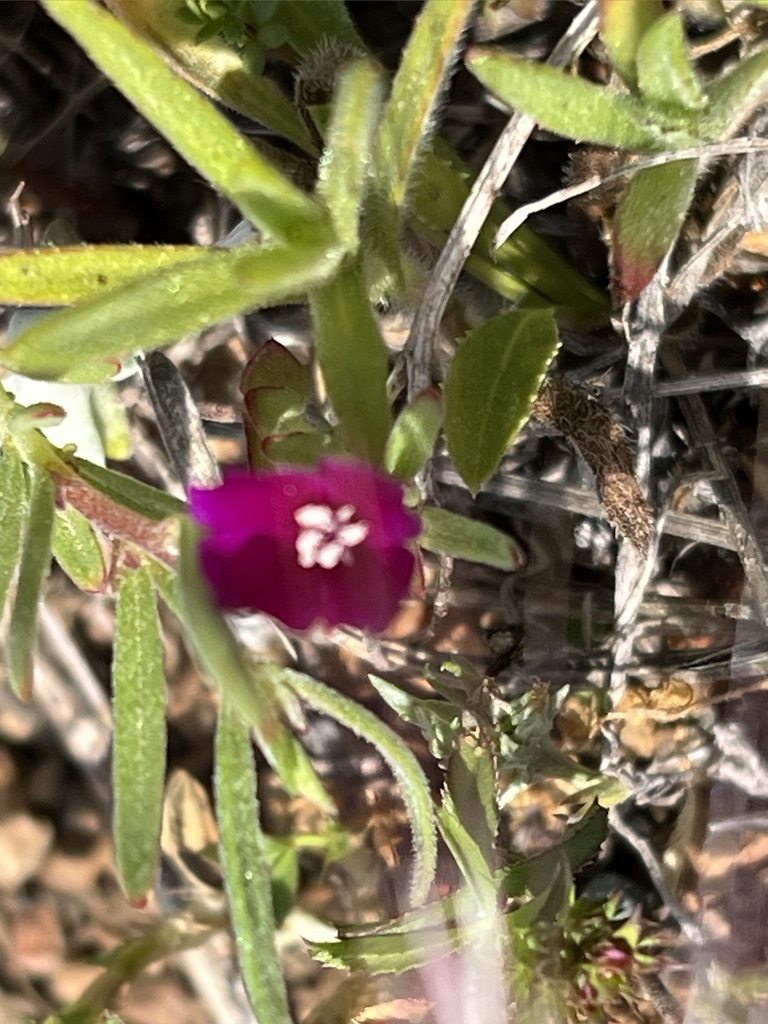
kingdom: Plantae
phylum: Tracheophyta
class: Magnoliopsida
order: Myrtales
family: Onagraceae
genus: Clarkia
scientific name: Clarkia purpurea
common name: Purple clarkia
